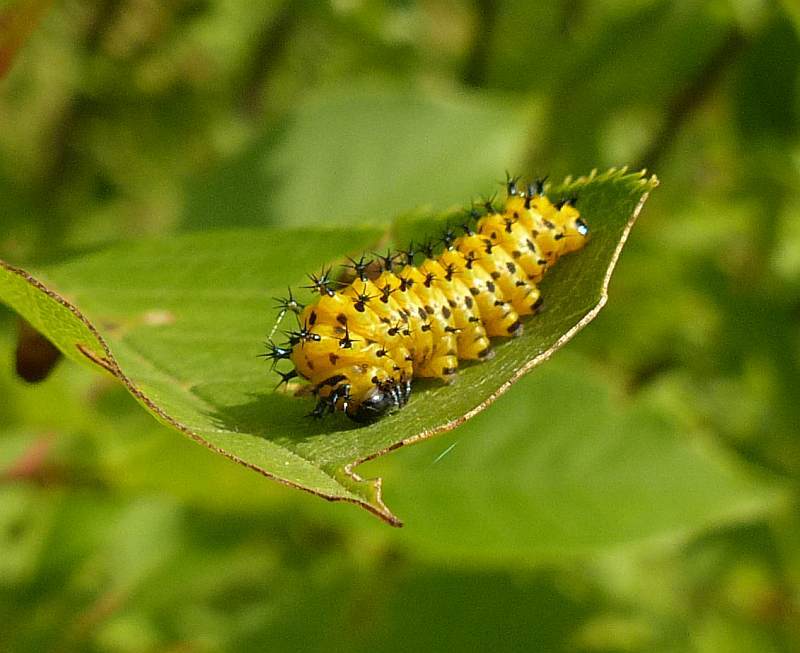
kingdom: Animalia
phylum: Arthropoda
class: Insecta
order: Lepidoptera
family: Saturniidae
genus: Hyalophora
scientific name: Hyalophora cecropia
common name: Cecropia silkmoth
